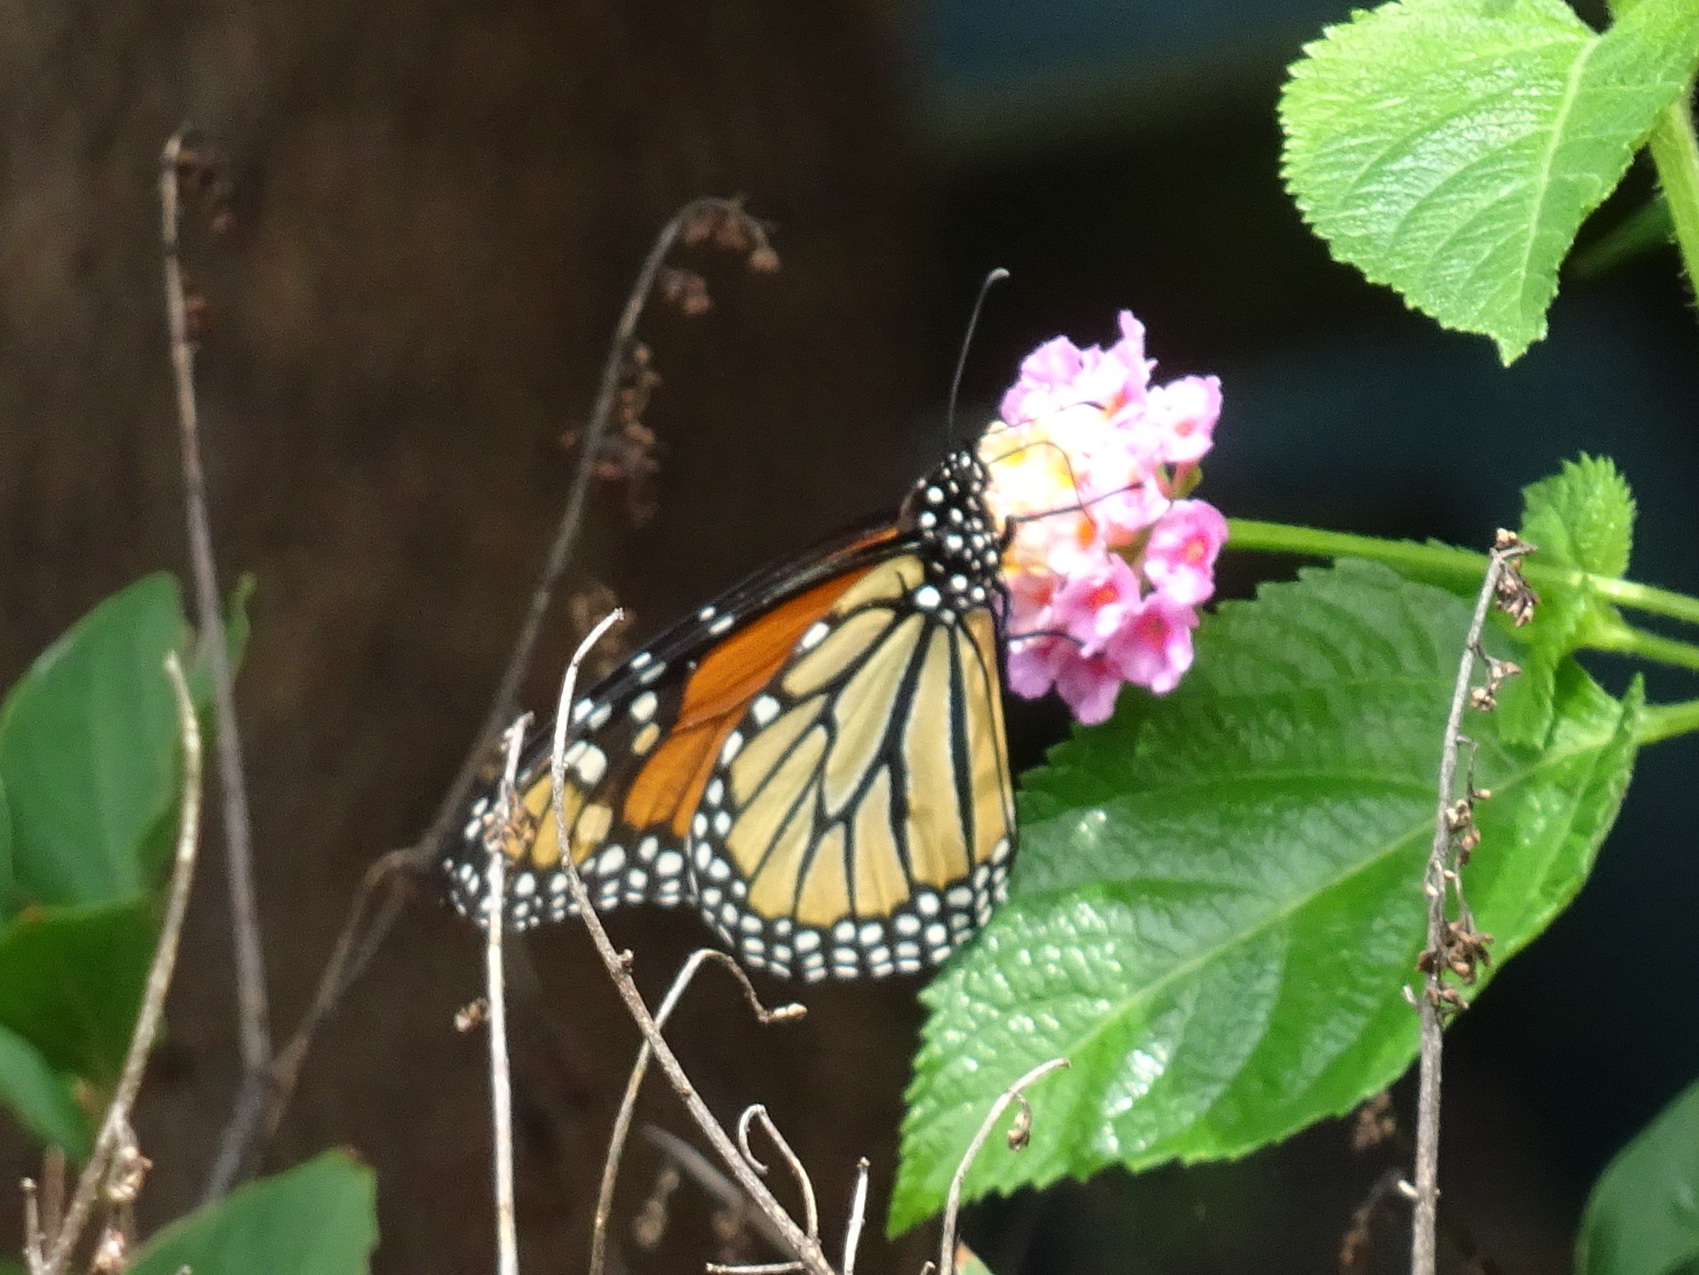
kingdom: Animalia
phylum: Arthropoda
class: Insecta
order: Lepidoptera
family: Nymphalidae
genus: Danaus
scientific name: Danaus plexippus
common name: Monarch
